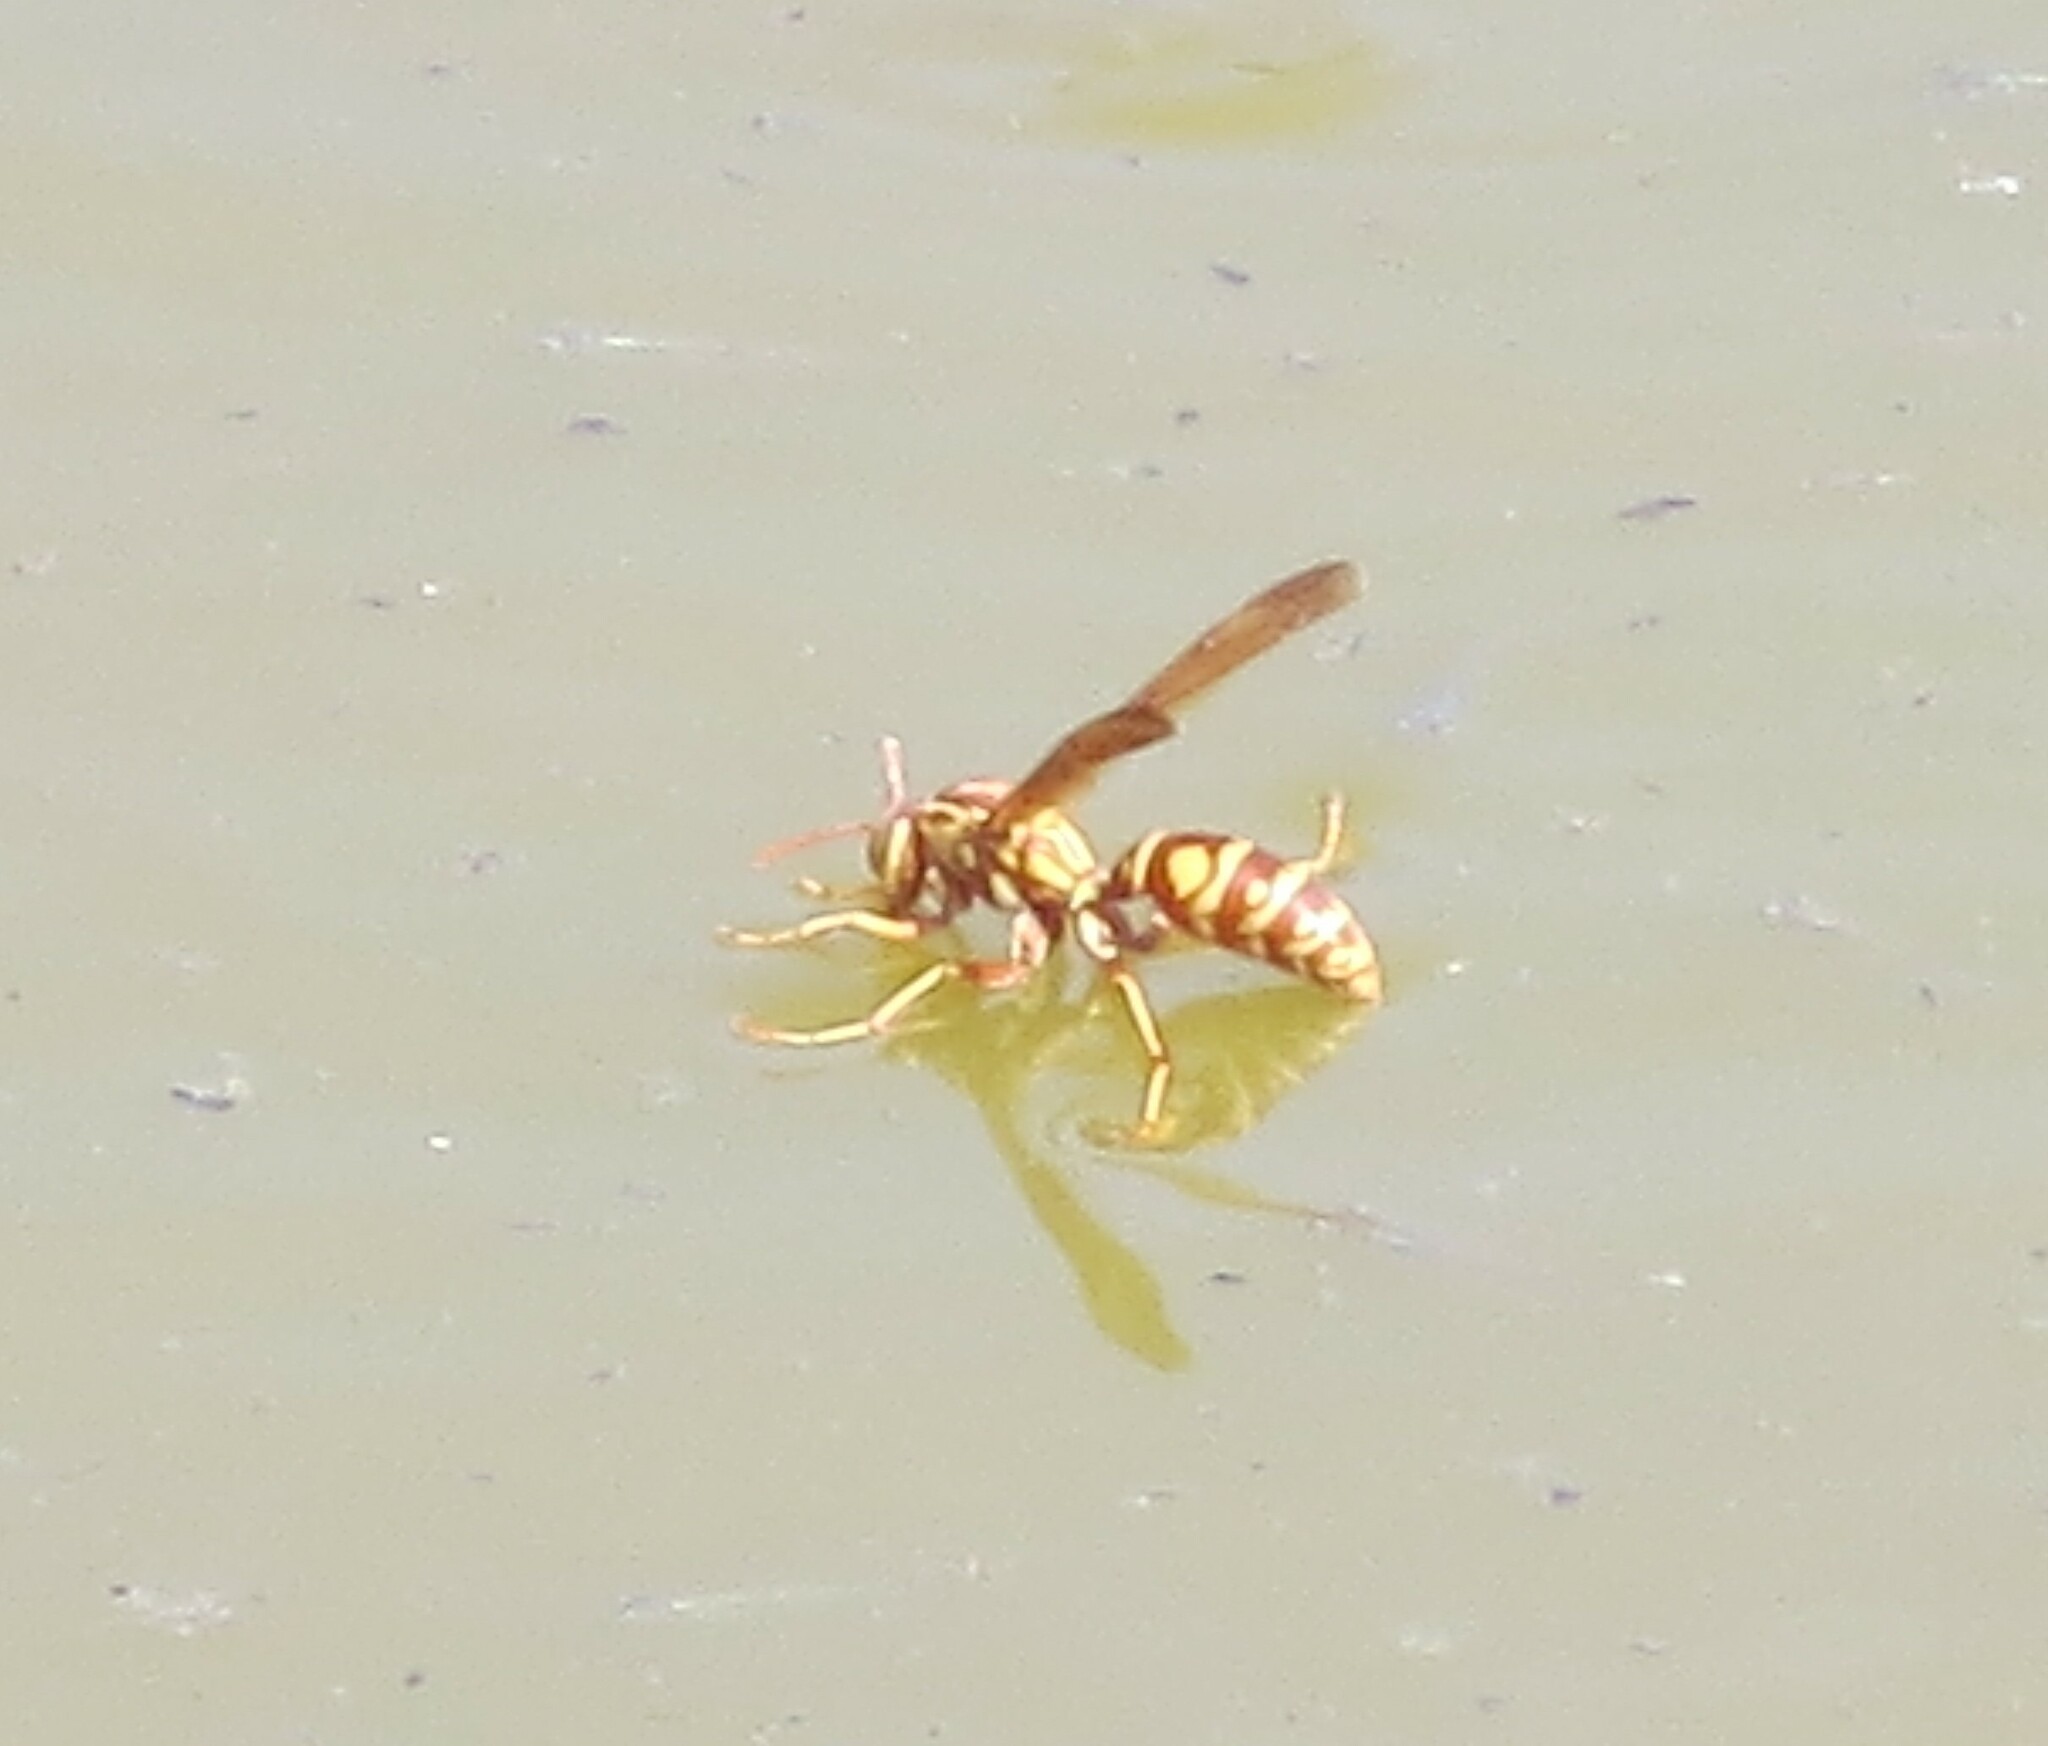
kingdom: Animalia
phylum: Arthropoda
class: Insecta
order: Hymenoptera
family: Eumenidae
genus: Polistes
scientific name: Polistes apachus
